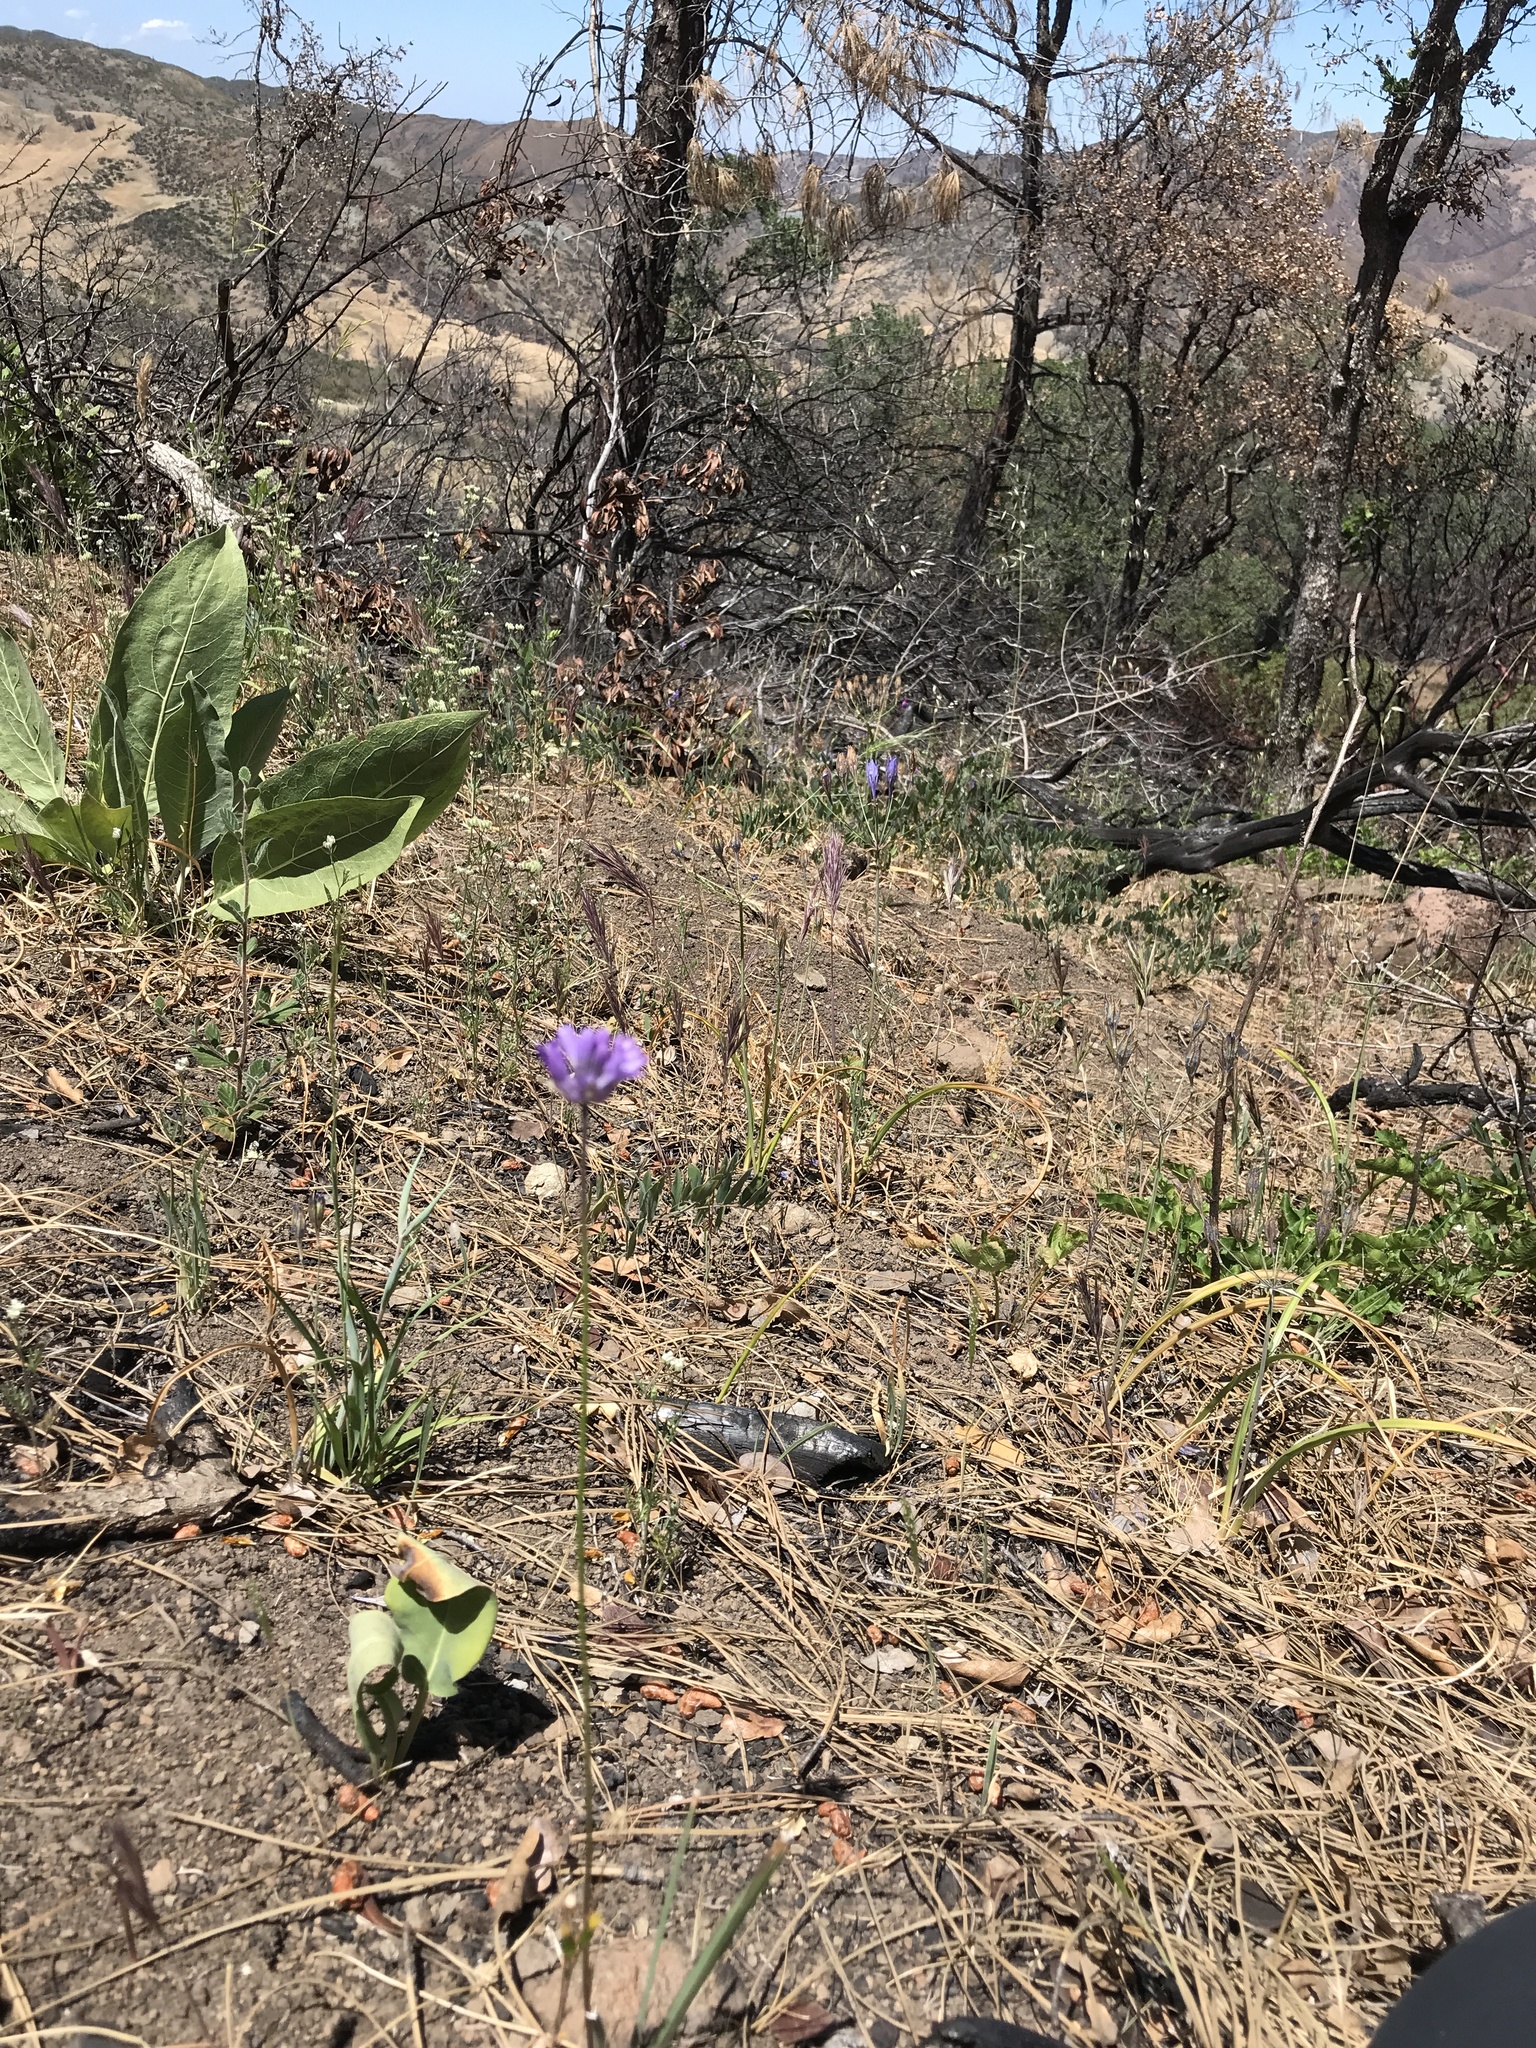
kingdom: Plantae
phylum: Tracheophyta
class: Liliopsida
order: Asparagales
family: Asparagaceae
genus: Dichelostemma
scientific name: Dichelostemma congestum
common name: Fork-tooth ookow
